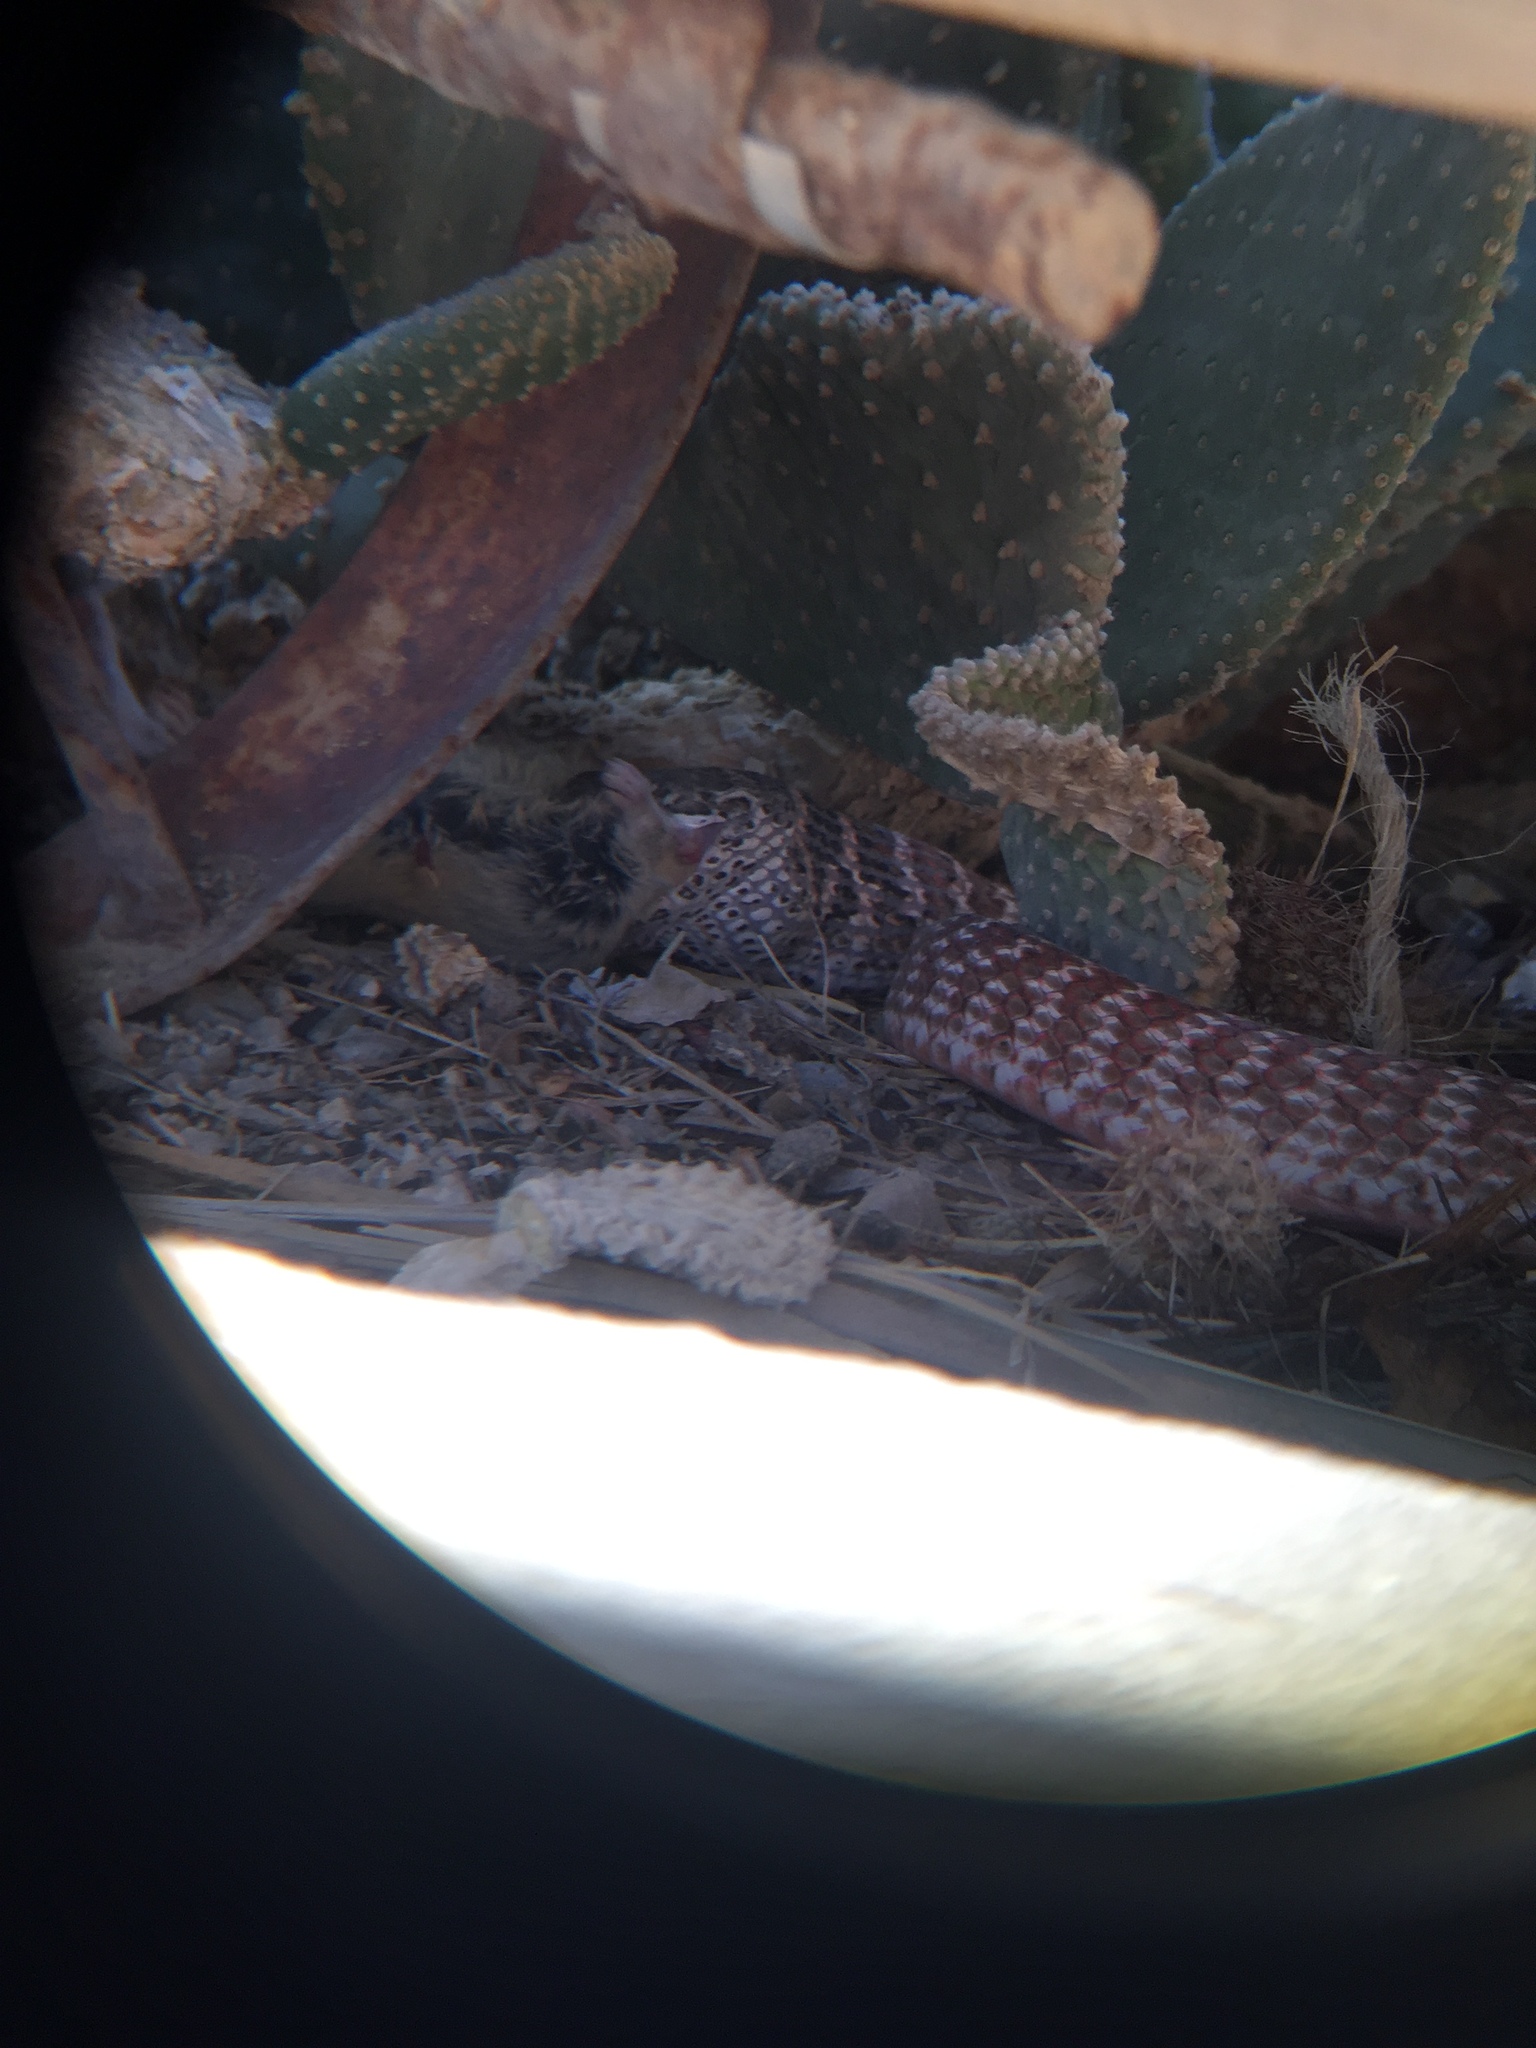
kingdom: Animalia
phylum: Chordata
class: Squamata
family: Colubridae
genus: Masticophis
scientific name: Masticophis flagellum
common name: Coachwhip
